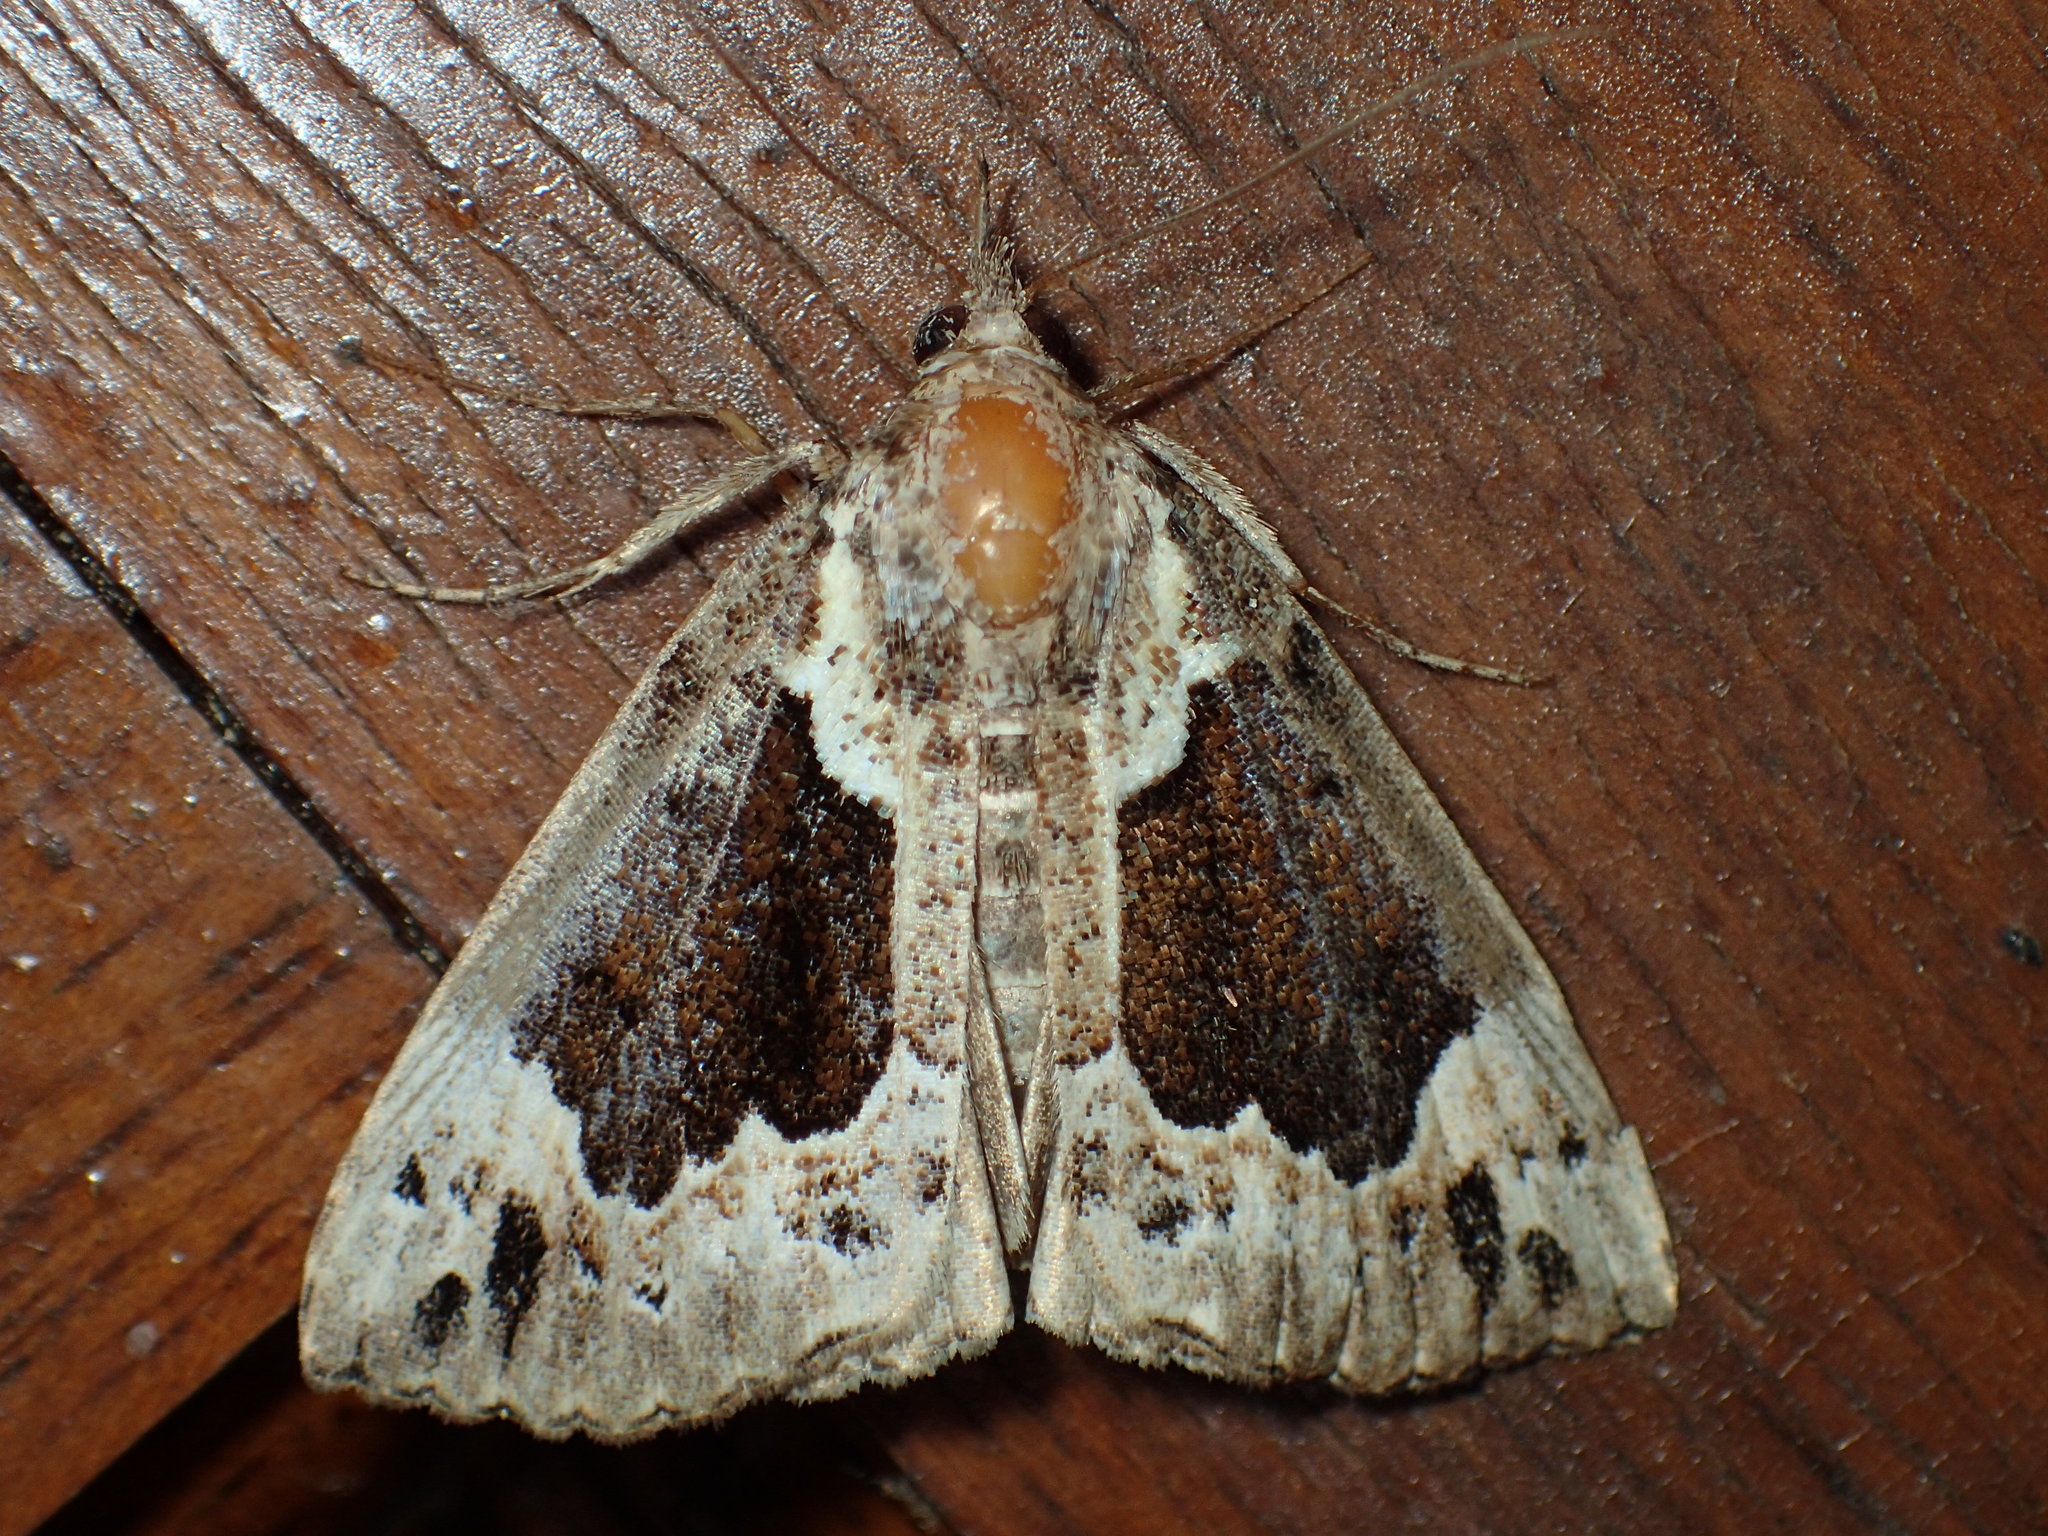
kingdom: Animalia
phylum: Arthropoda
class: Insecta
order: Lepidoptera
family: Erebidae
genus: Hypena
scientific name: Hypena baltimoralis
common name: Baltimore snout
